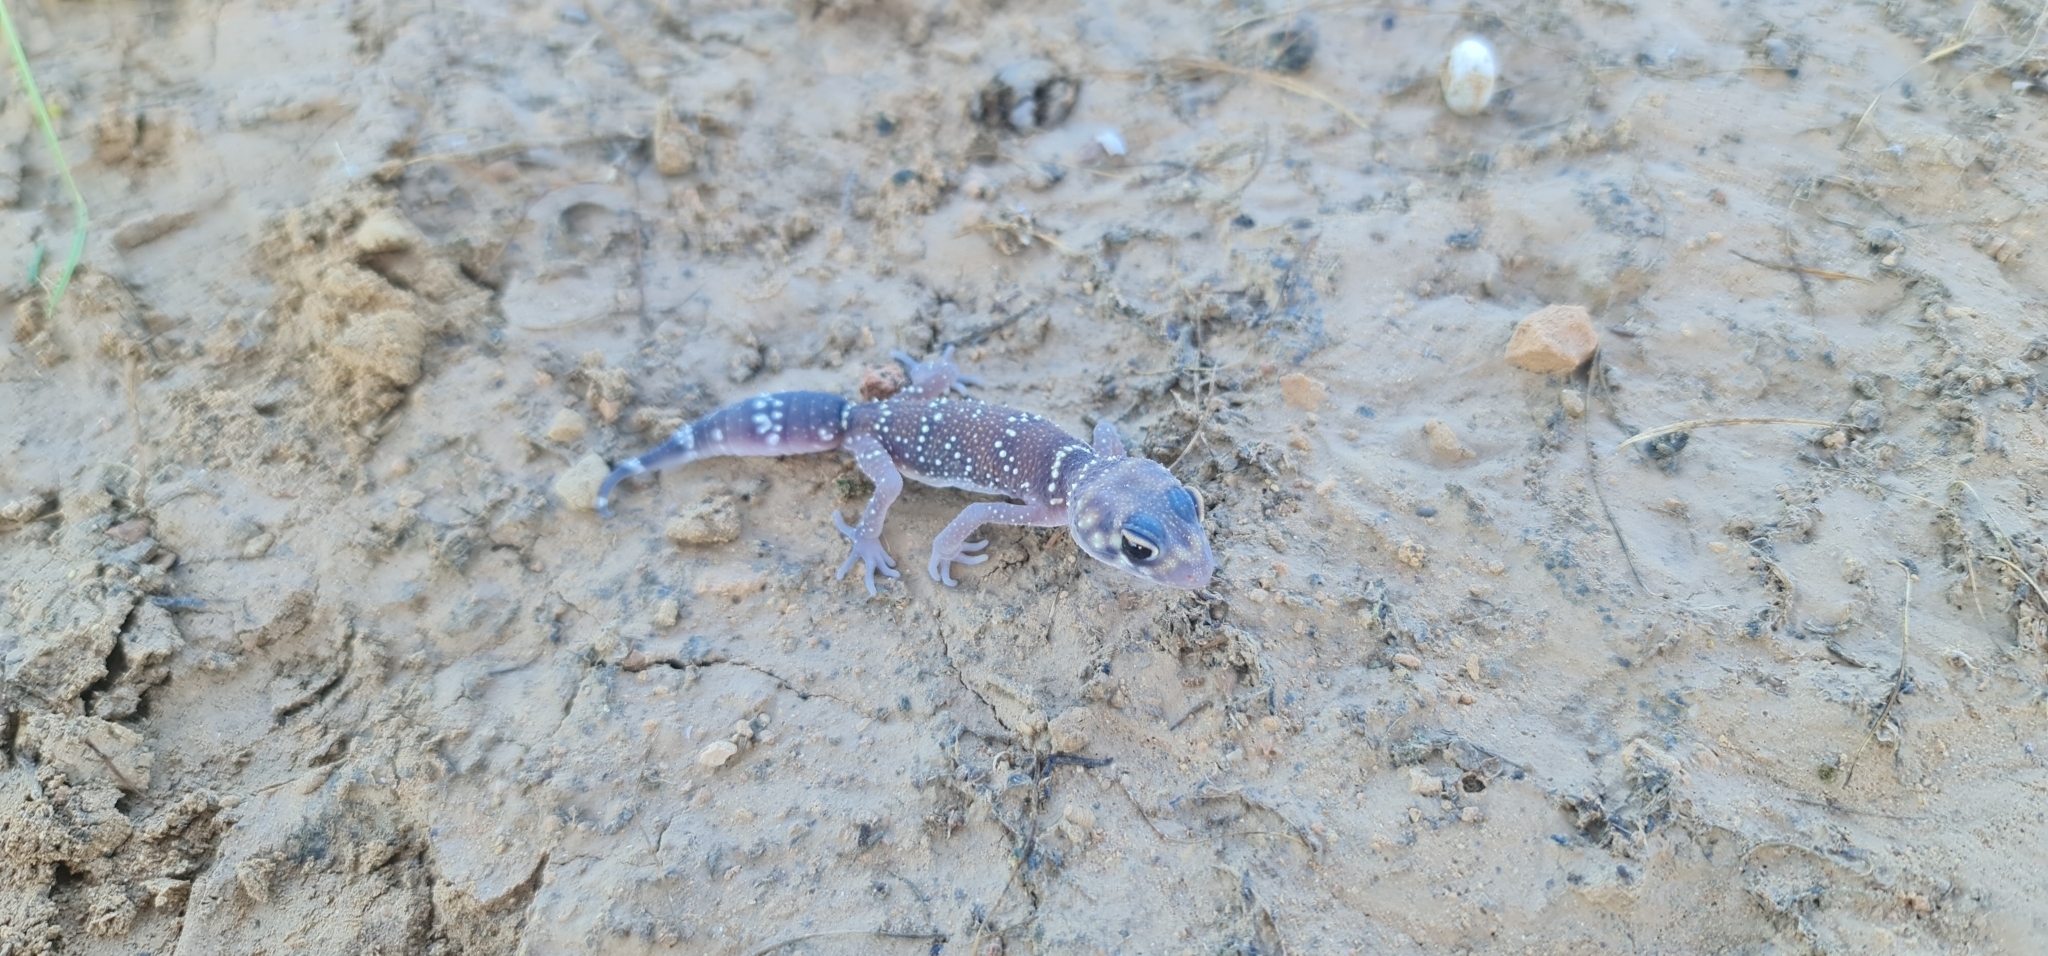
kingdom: Animalia
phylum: Chordata
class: Squamata
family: Carphodactylidae
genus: Underwoodisaurus
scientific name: Underwoodisaurus milii
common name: Barking gecko
